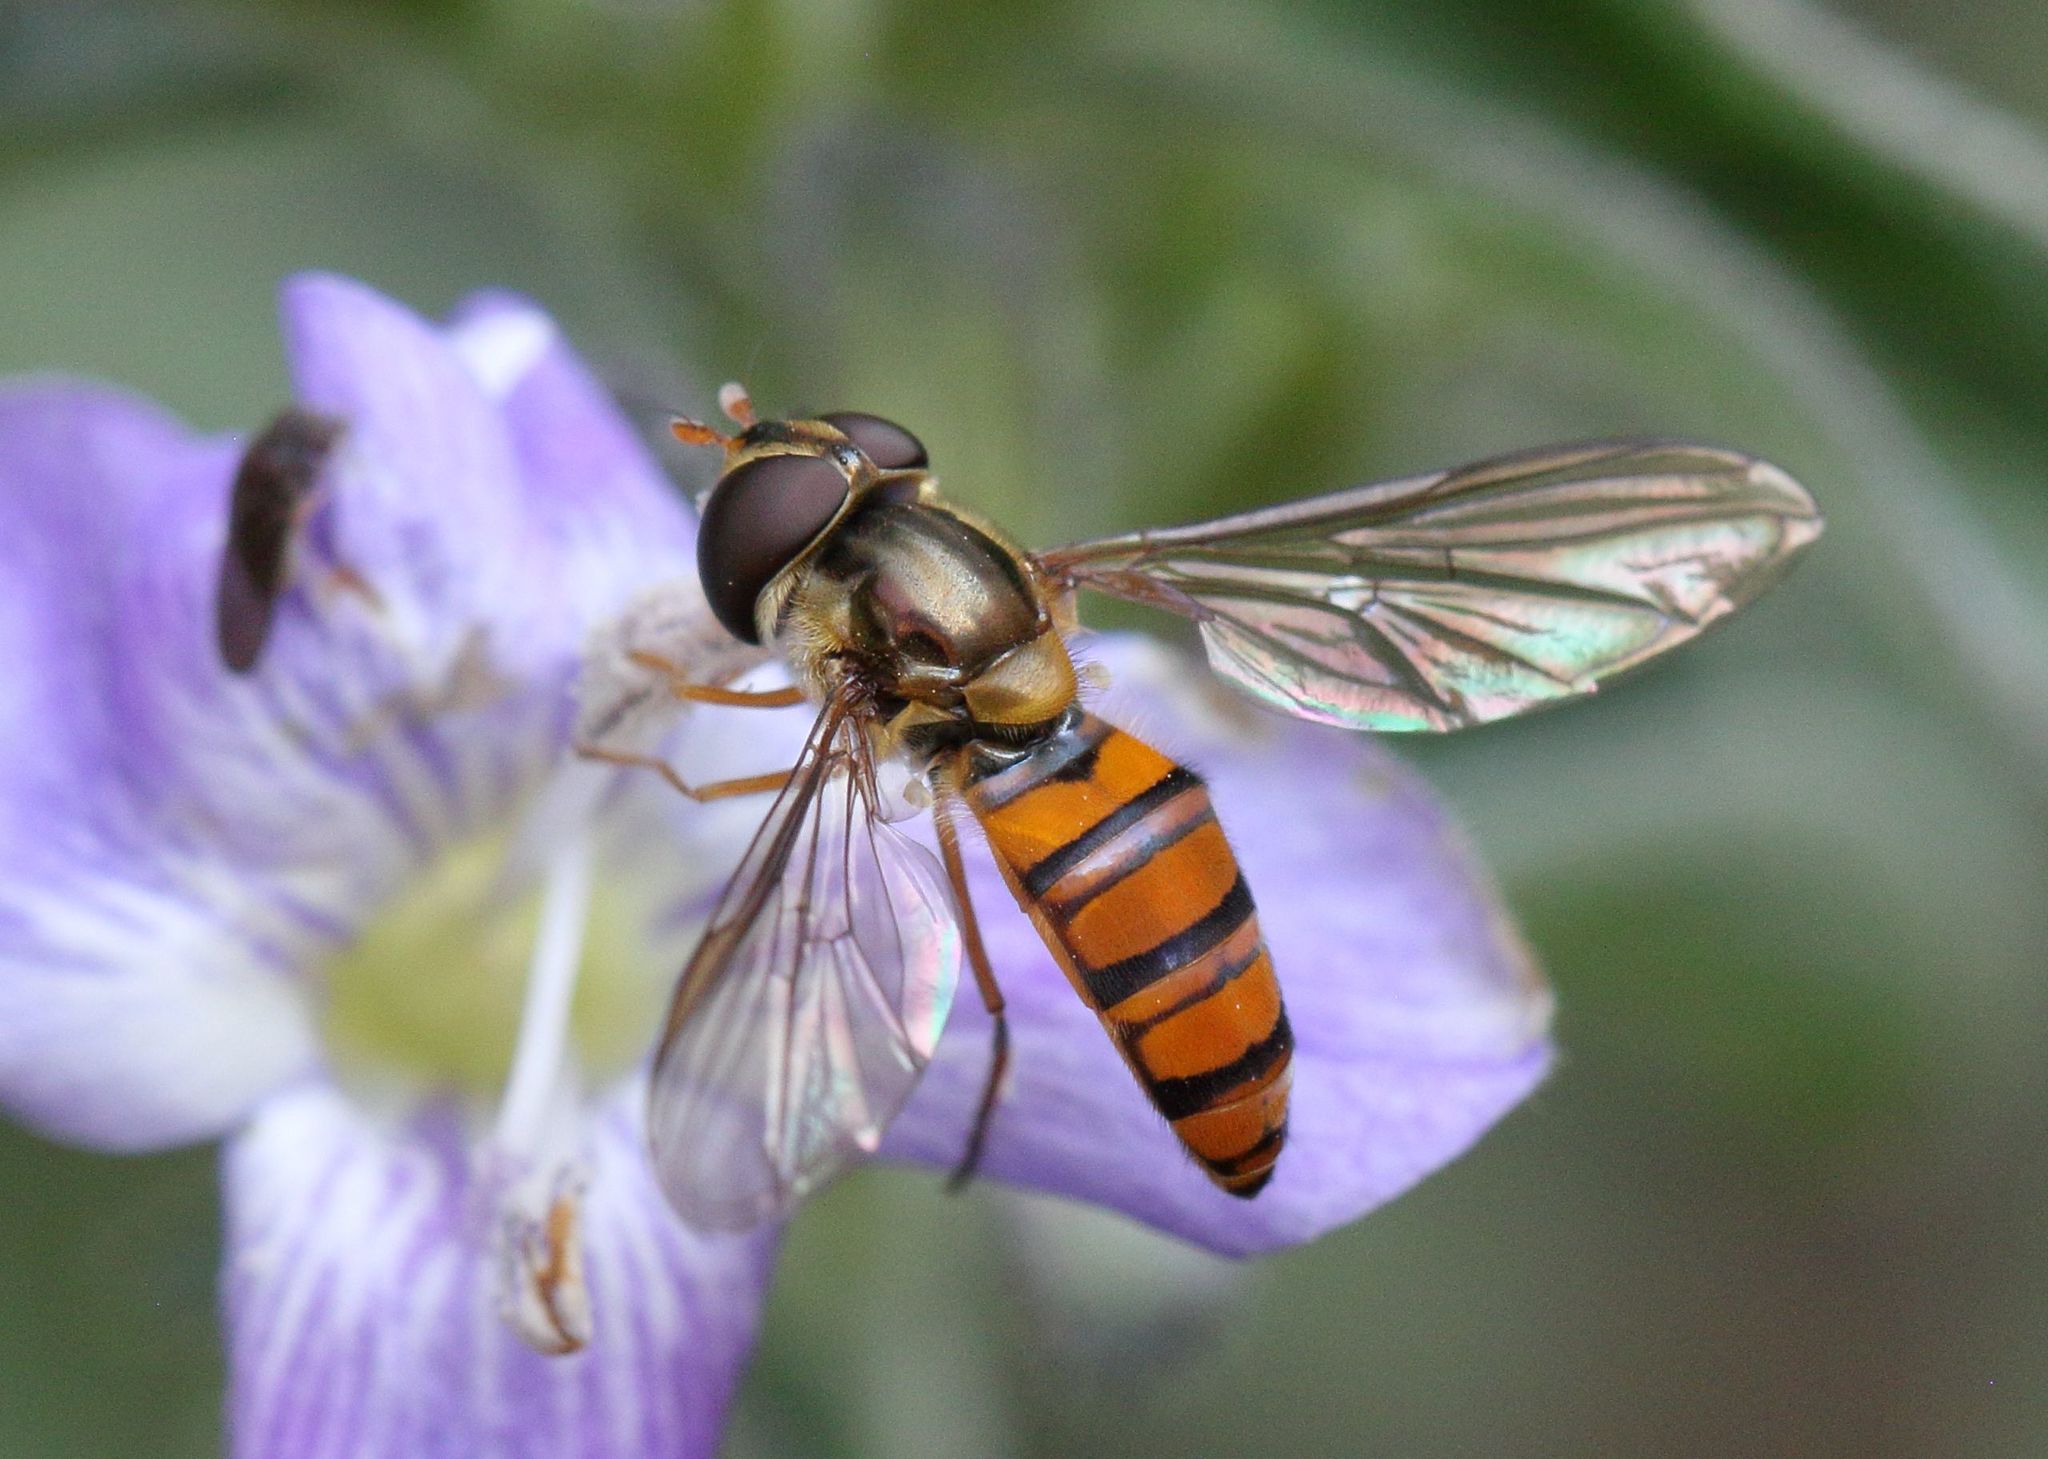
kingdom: Animalia
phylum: Arthropoda
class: Insecta
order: Diptera
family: Syrphidae
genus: Episyrphus
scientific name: Episyrphus trisectus
